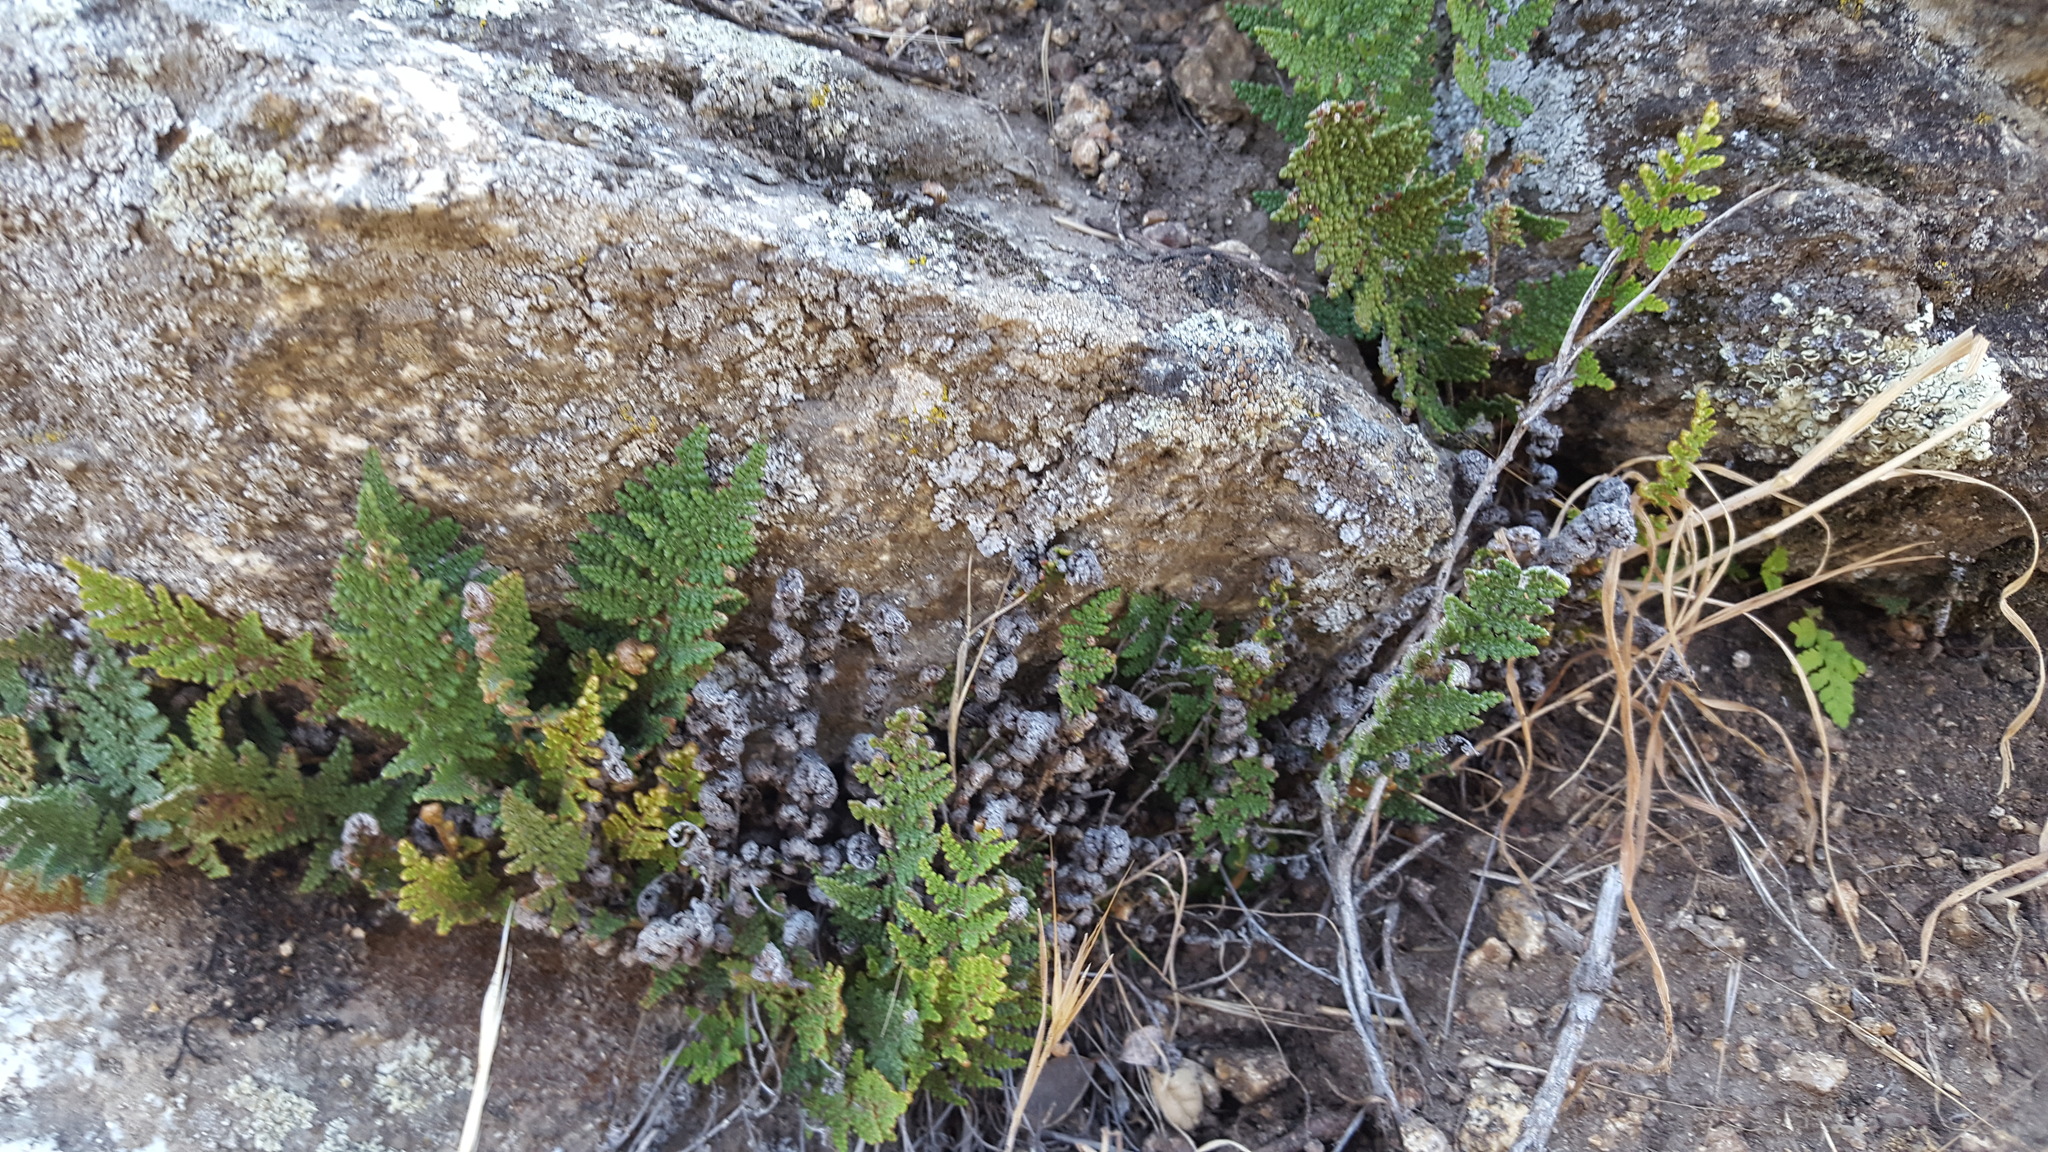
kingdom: Plantae
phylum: Tracheophyta
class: Polypodiopsida
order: Polypodiales
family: Pteridaceae
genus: Myriopteris
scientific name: Myriopteris clevelandii
